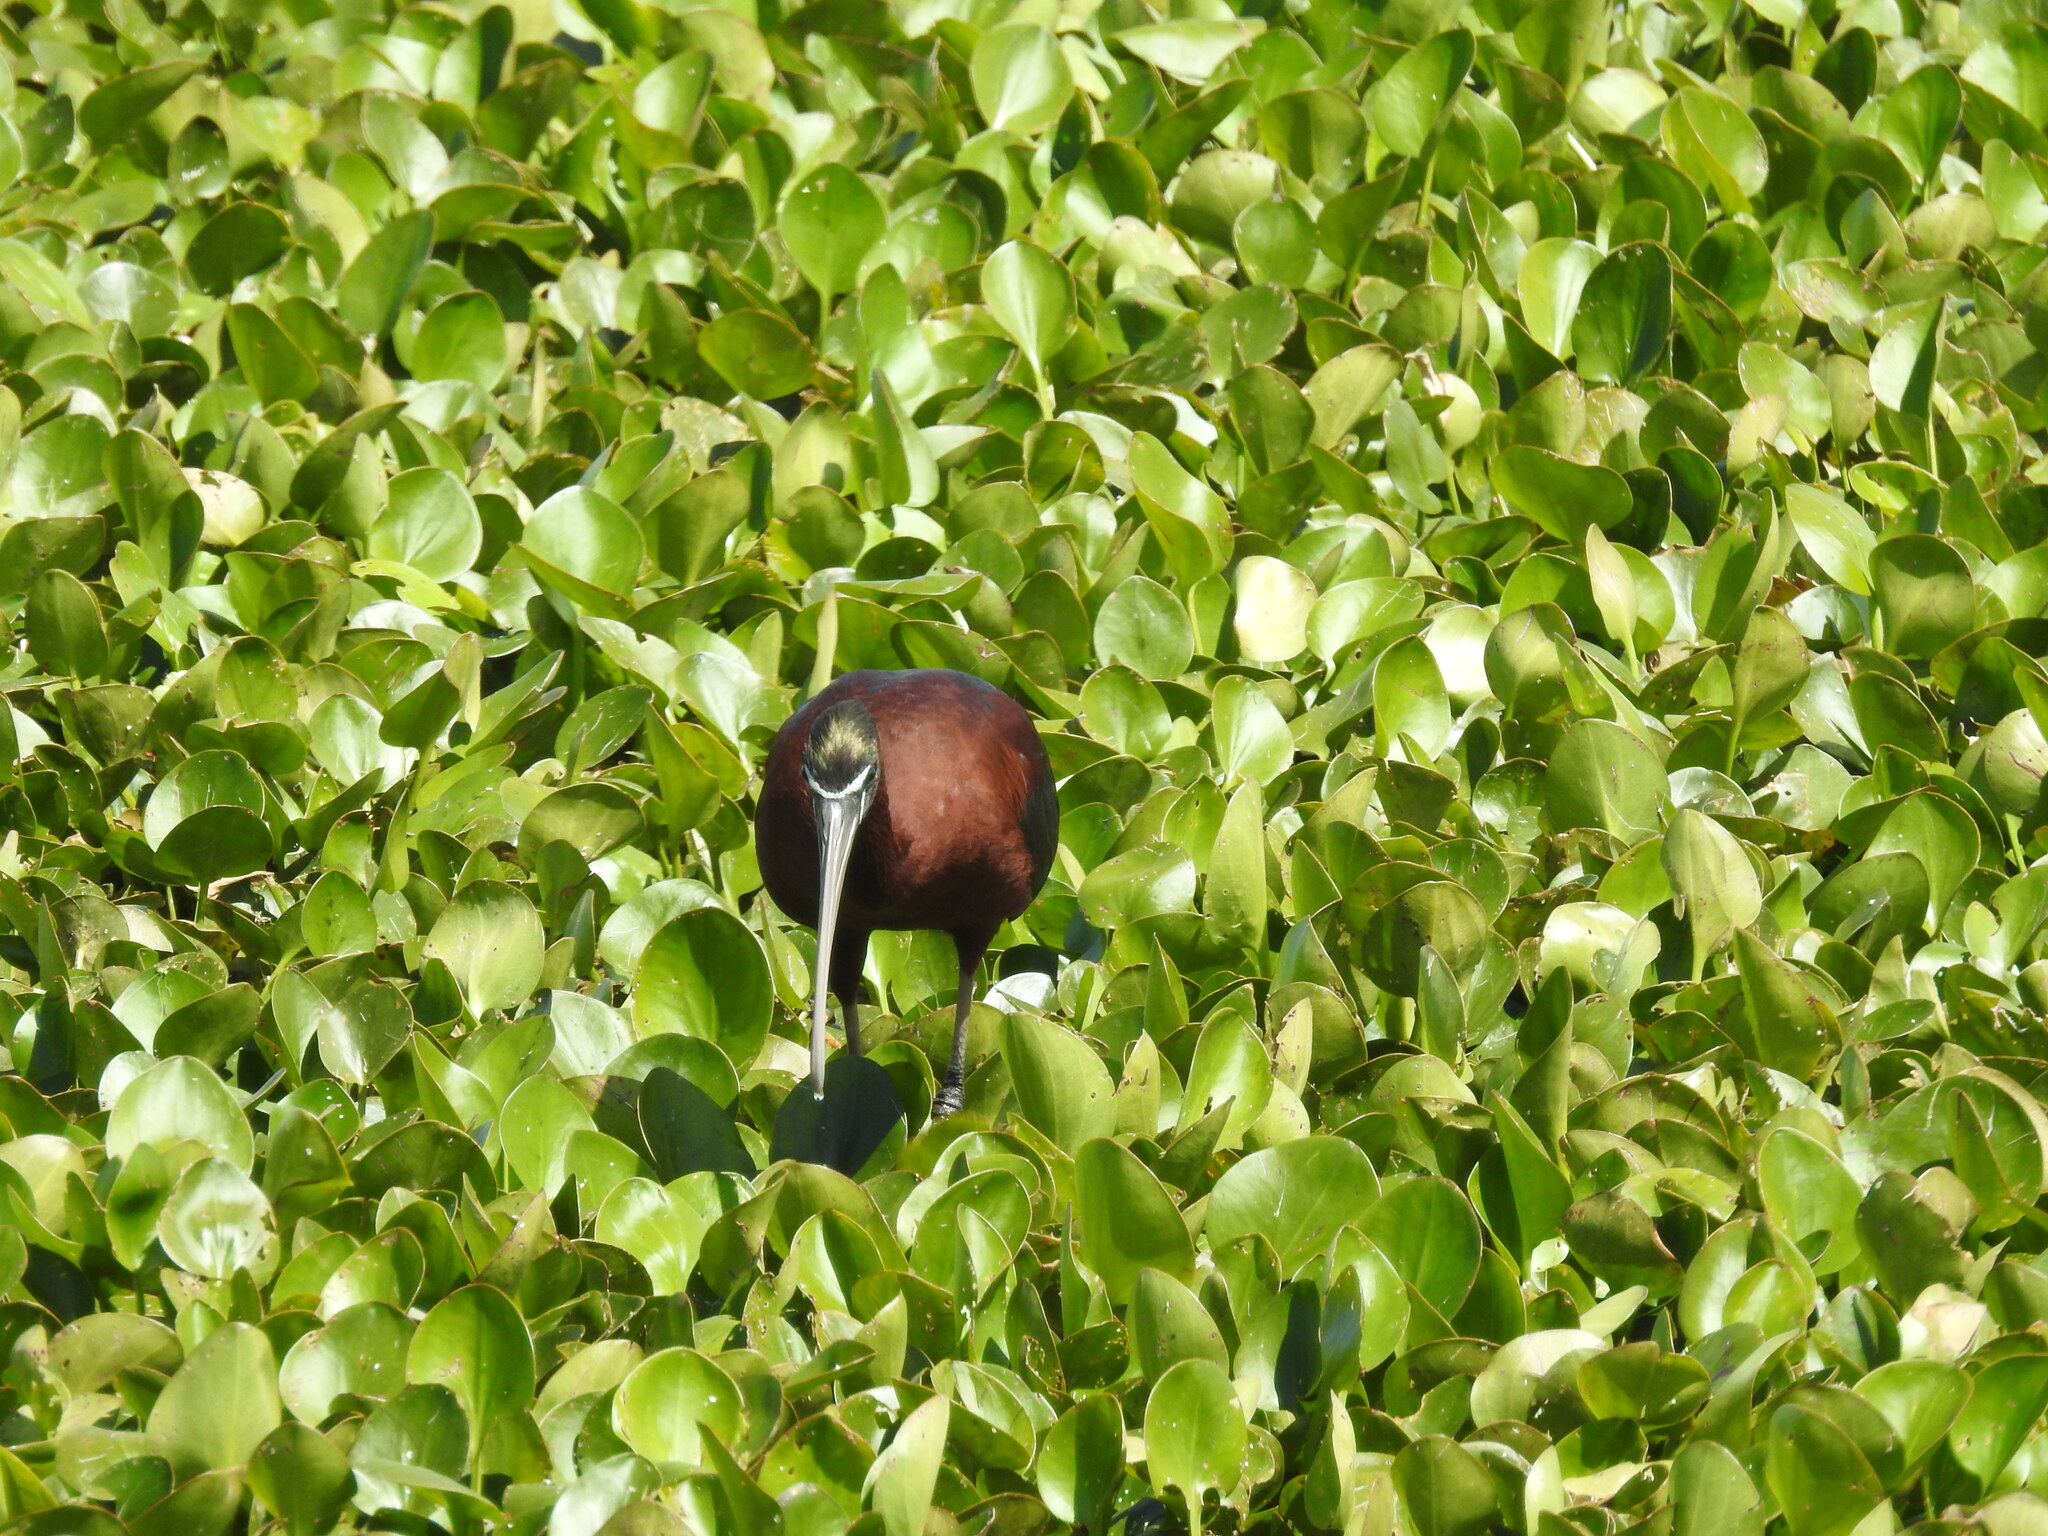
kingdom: Animalia
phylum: Chordata
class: Aves
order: Pelecaniformes
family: Threskiornithidae
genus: Plegadis
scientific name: Plegadis falcinellus
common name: Glossy ibis
